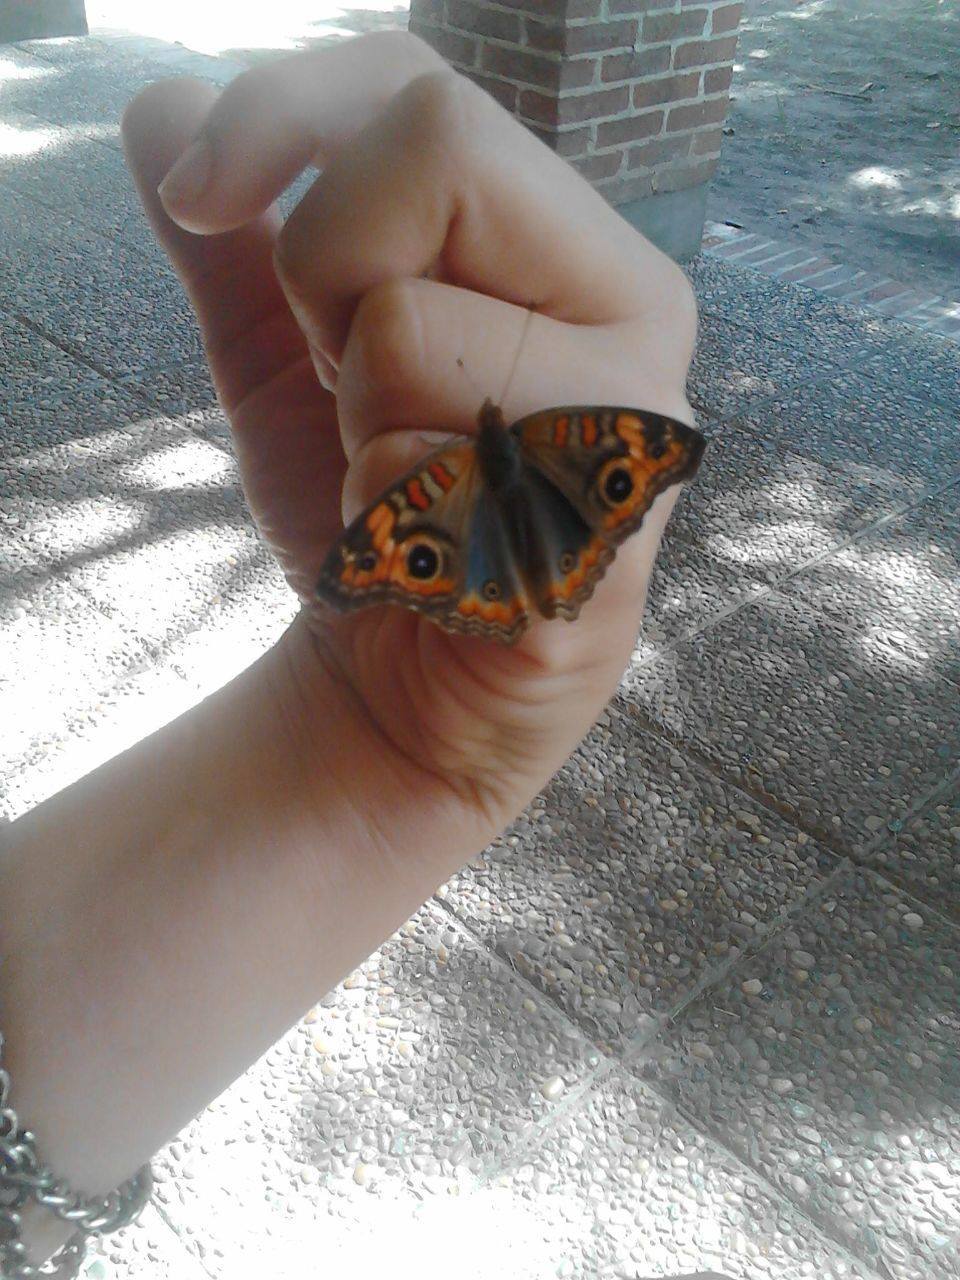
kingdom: Animalia
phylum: Arthropoda
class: Insecta
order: Lepidoptera
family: Nymphalidae
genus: Junonia
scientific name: Junonia lavinia
